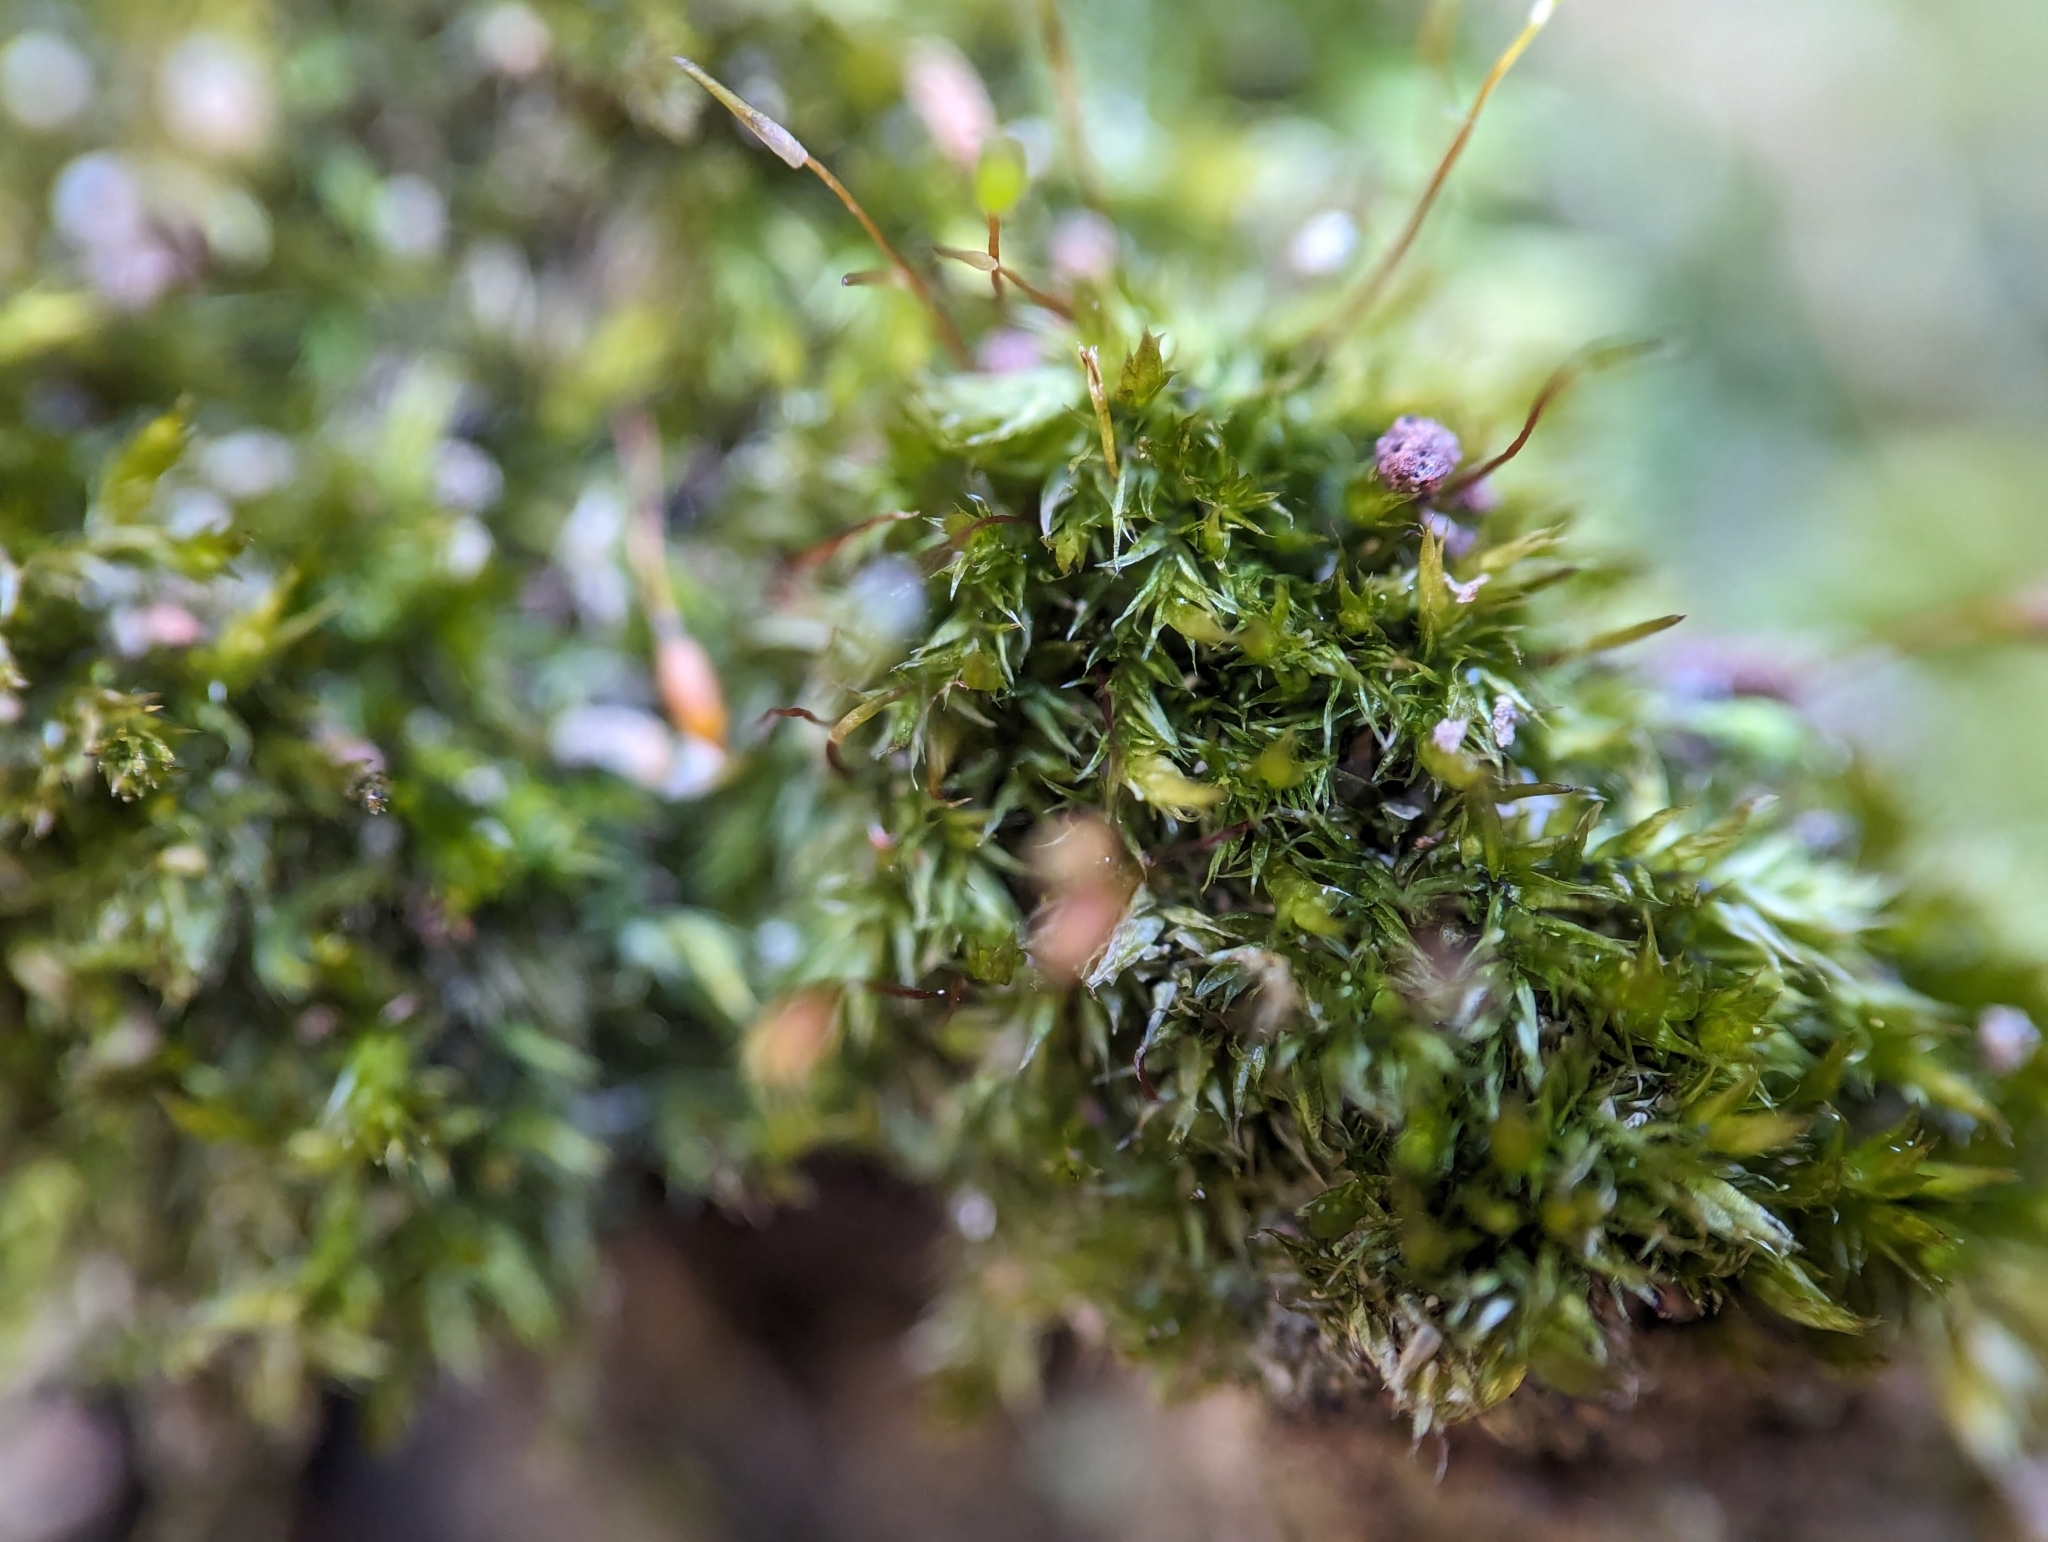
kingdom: Plantae
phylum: Bryophyta
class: Bryopsida
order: Hypnales
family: Sematophyllaceae
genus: Sematophyllum
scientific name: Sematophyllum adnatum
